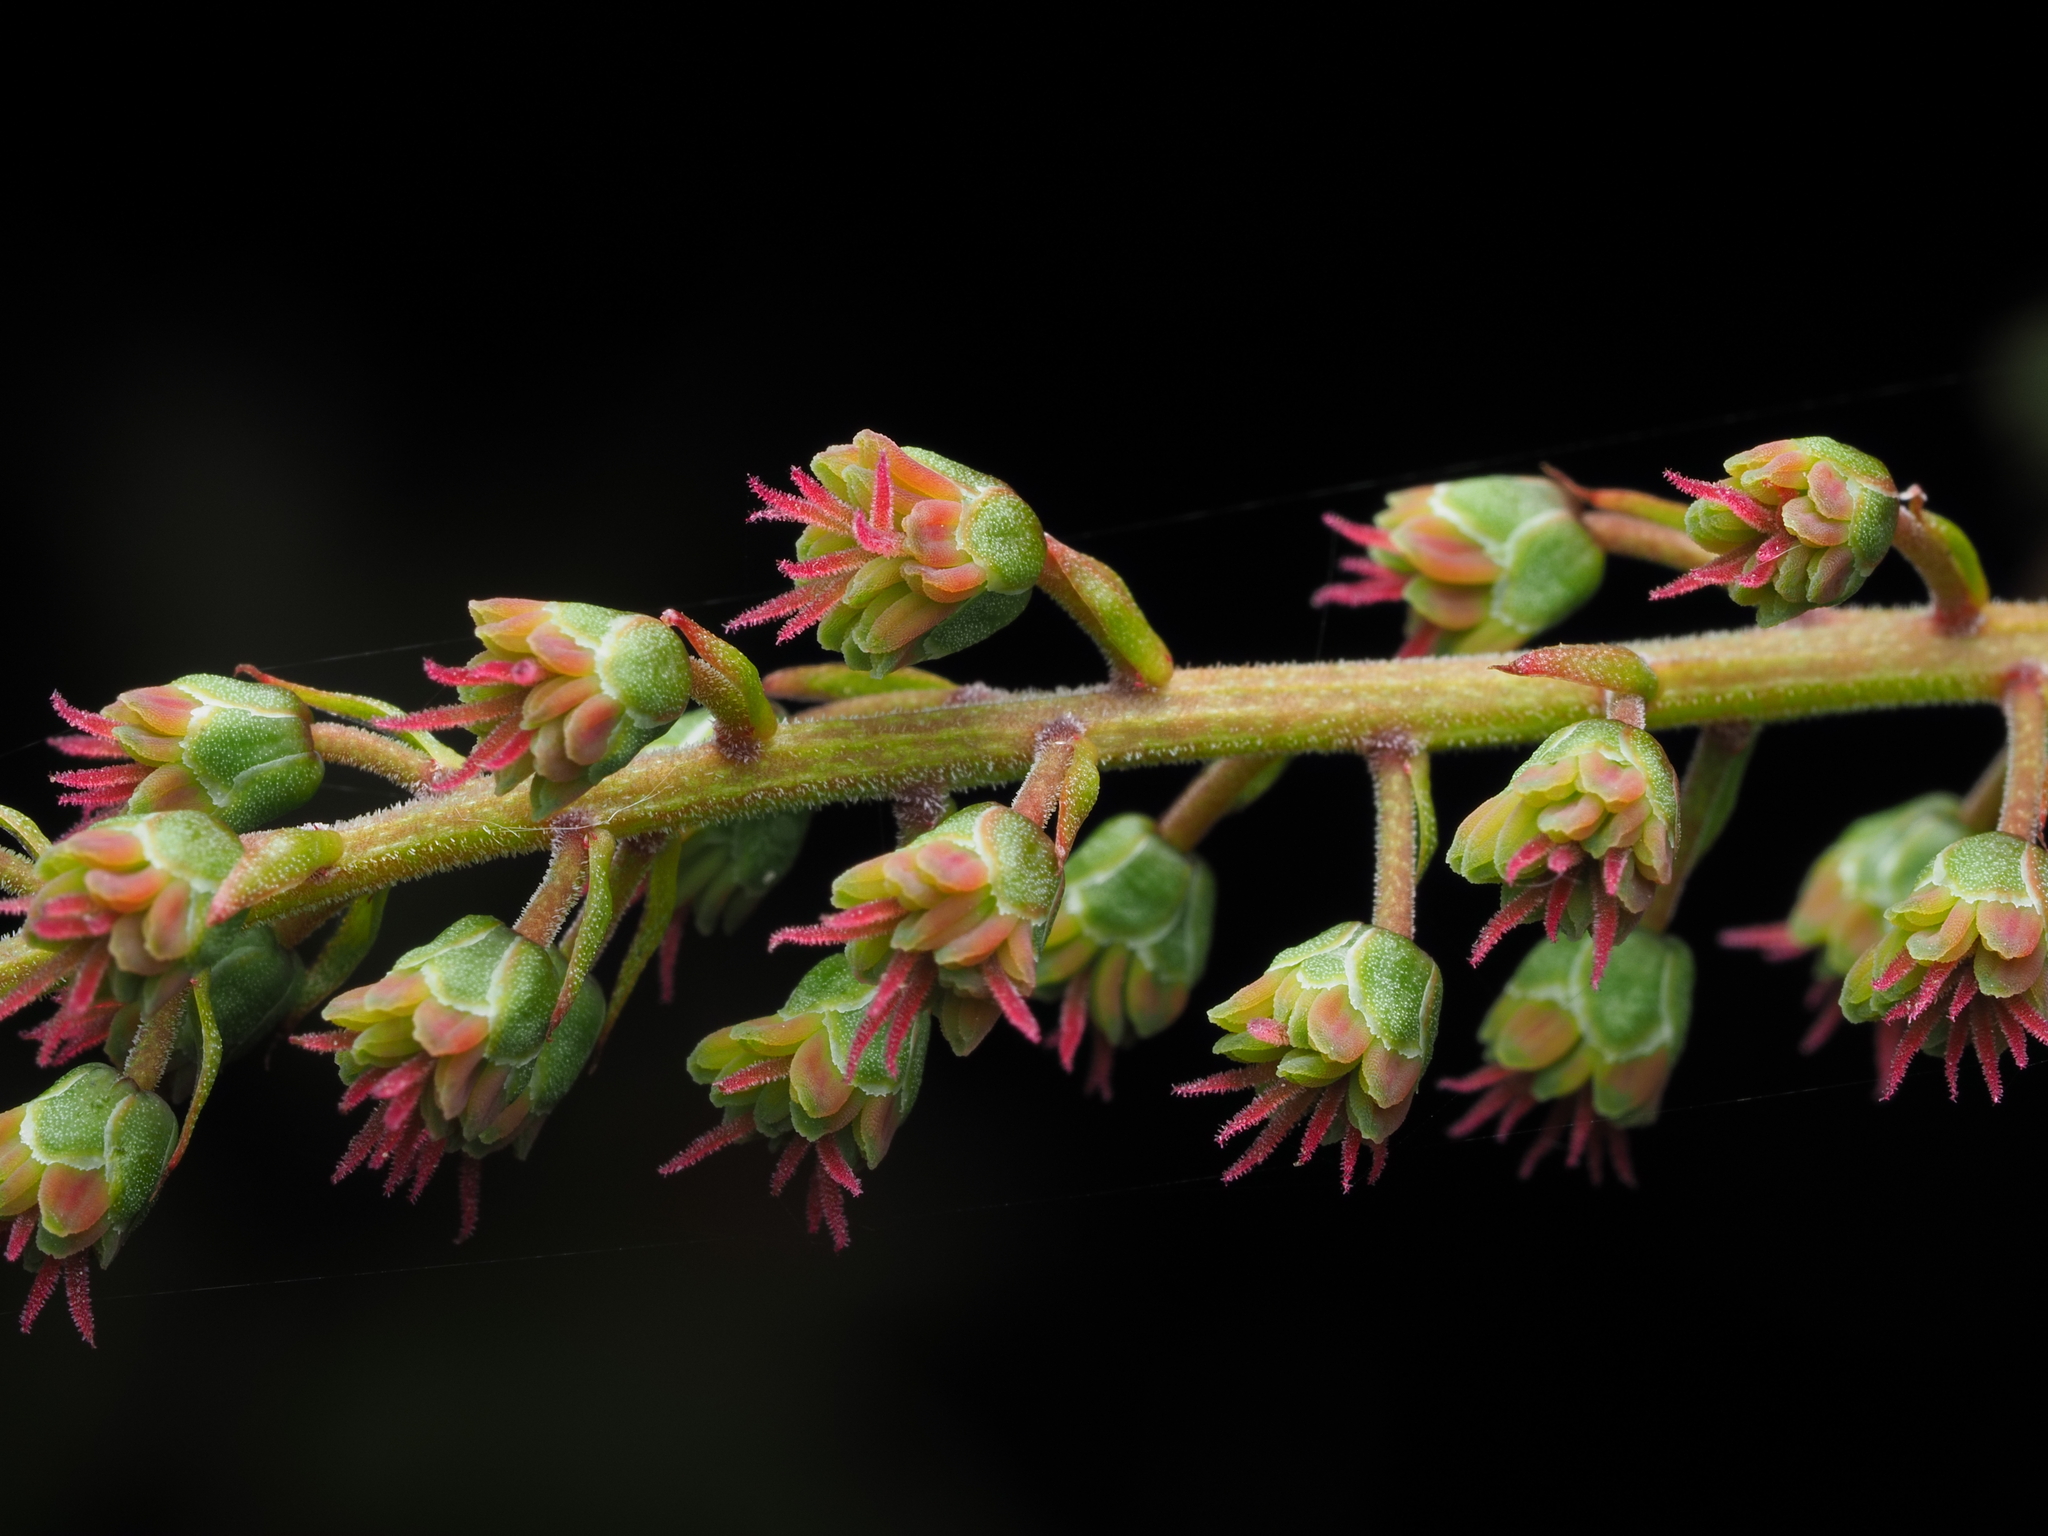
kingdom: Plantae
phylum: Tracheophyta
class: Magnoliopsida
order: Cucurbitales
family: Coriariaceae
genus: Coriaria
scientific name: Coriaria sarmentosa
